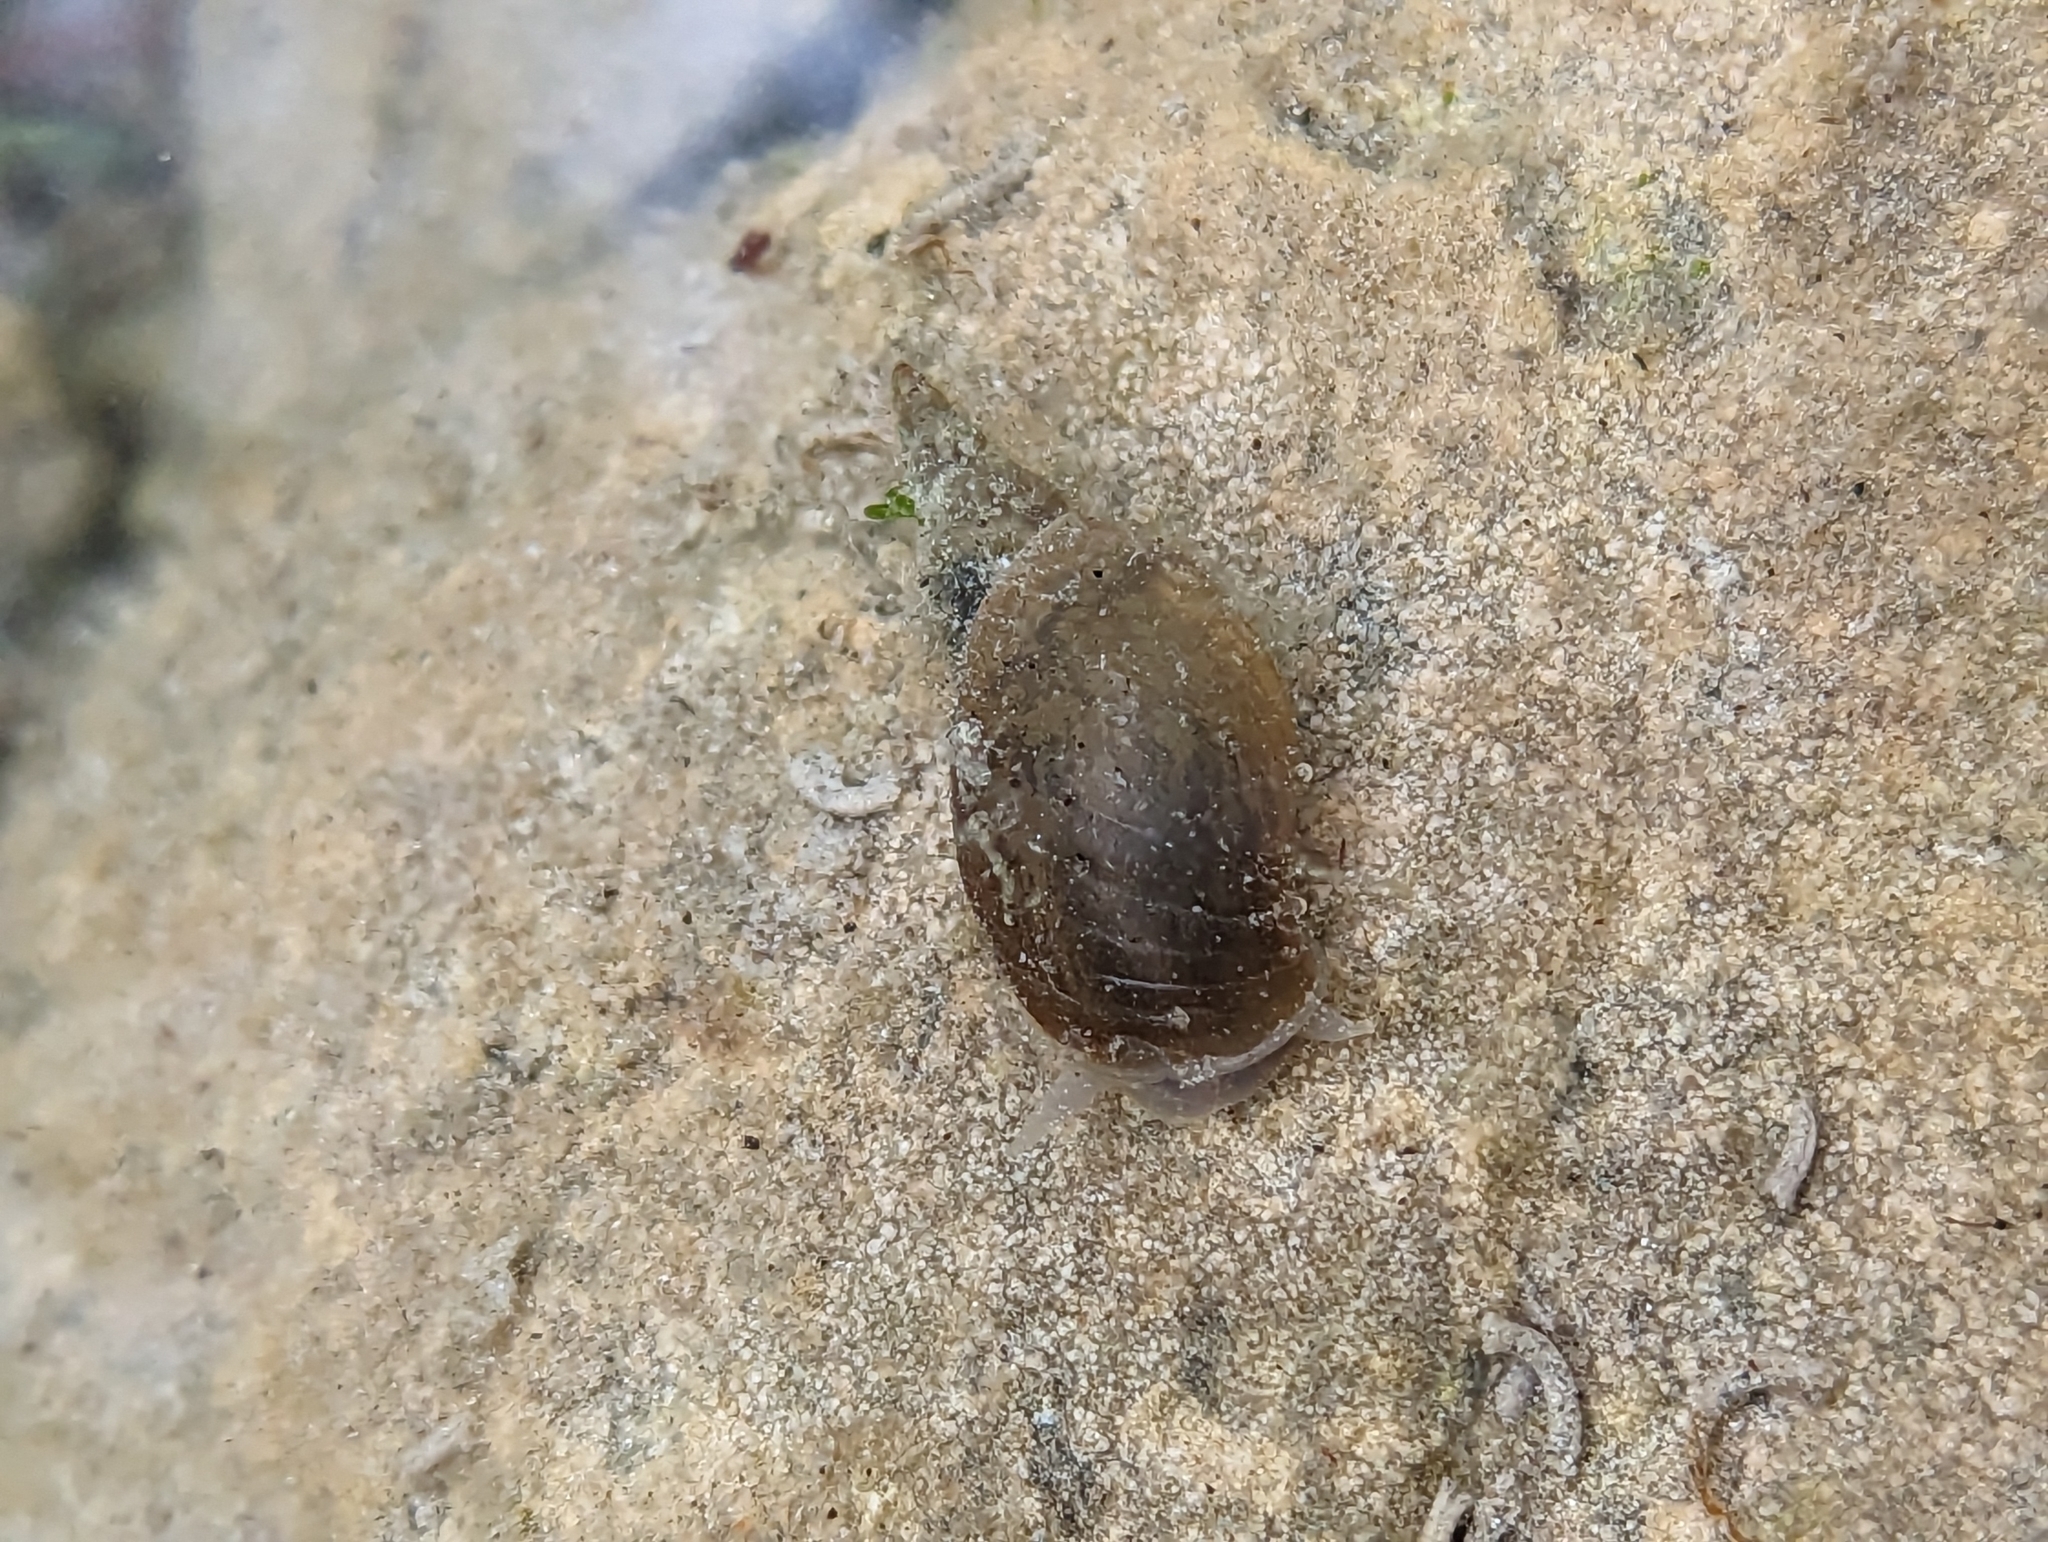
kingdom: Animalia
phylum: Mollusca
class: Gastropoda
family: Lymnaeidae
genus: Lymnaea
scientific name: Lymnaea stagnalis
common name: Great pond snail
